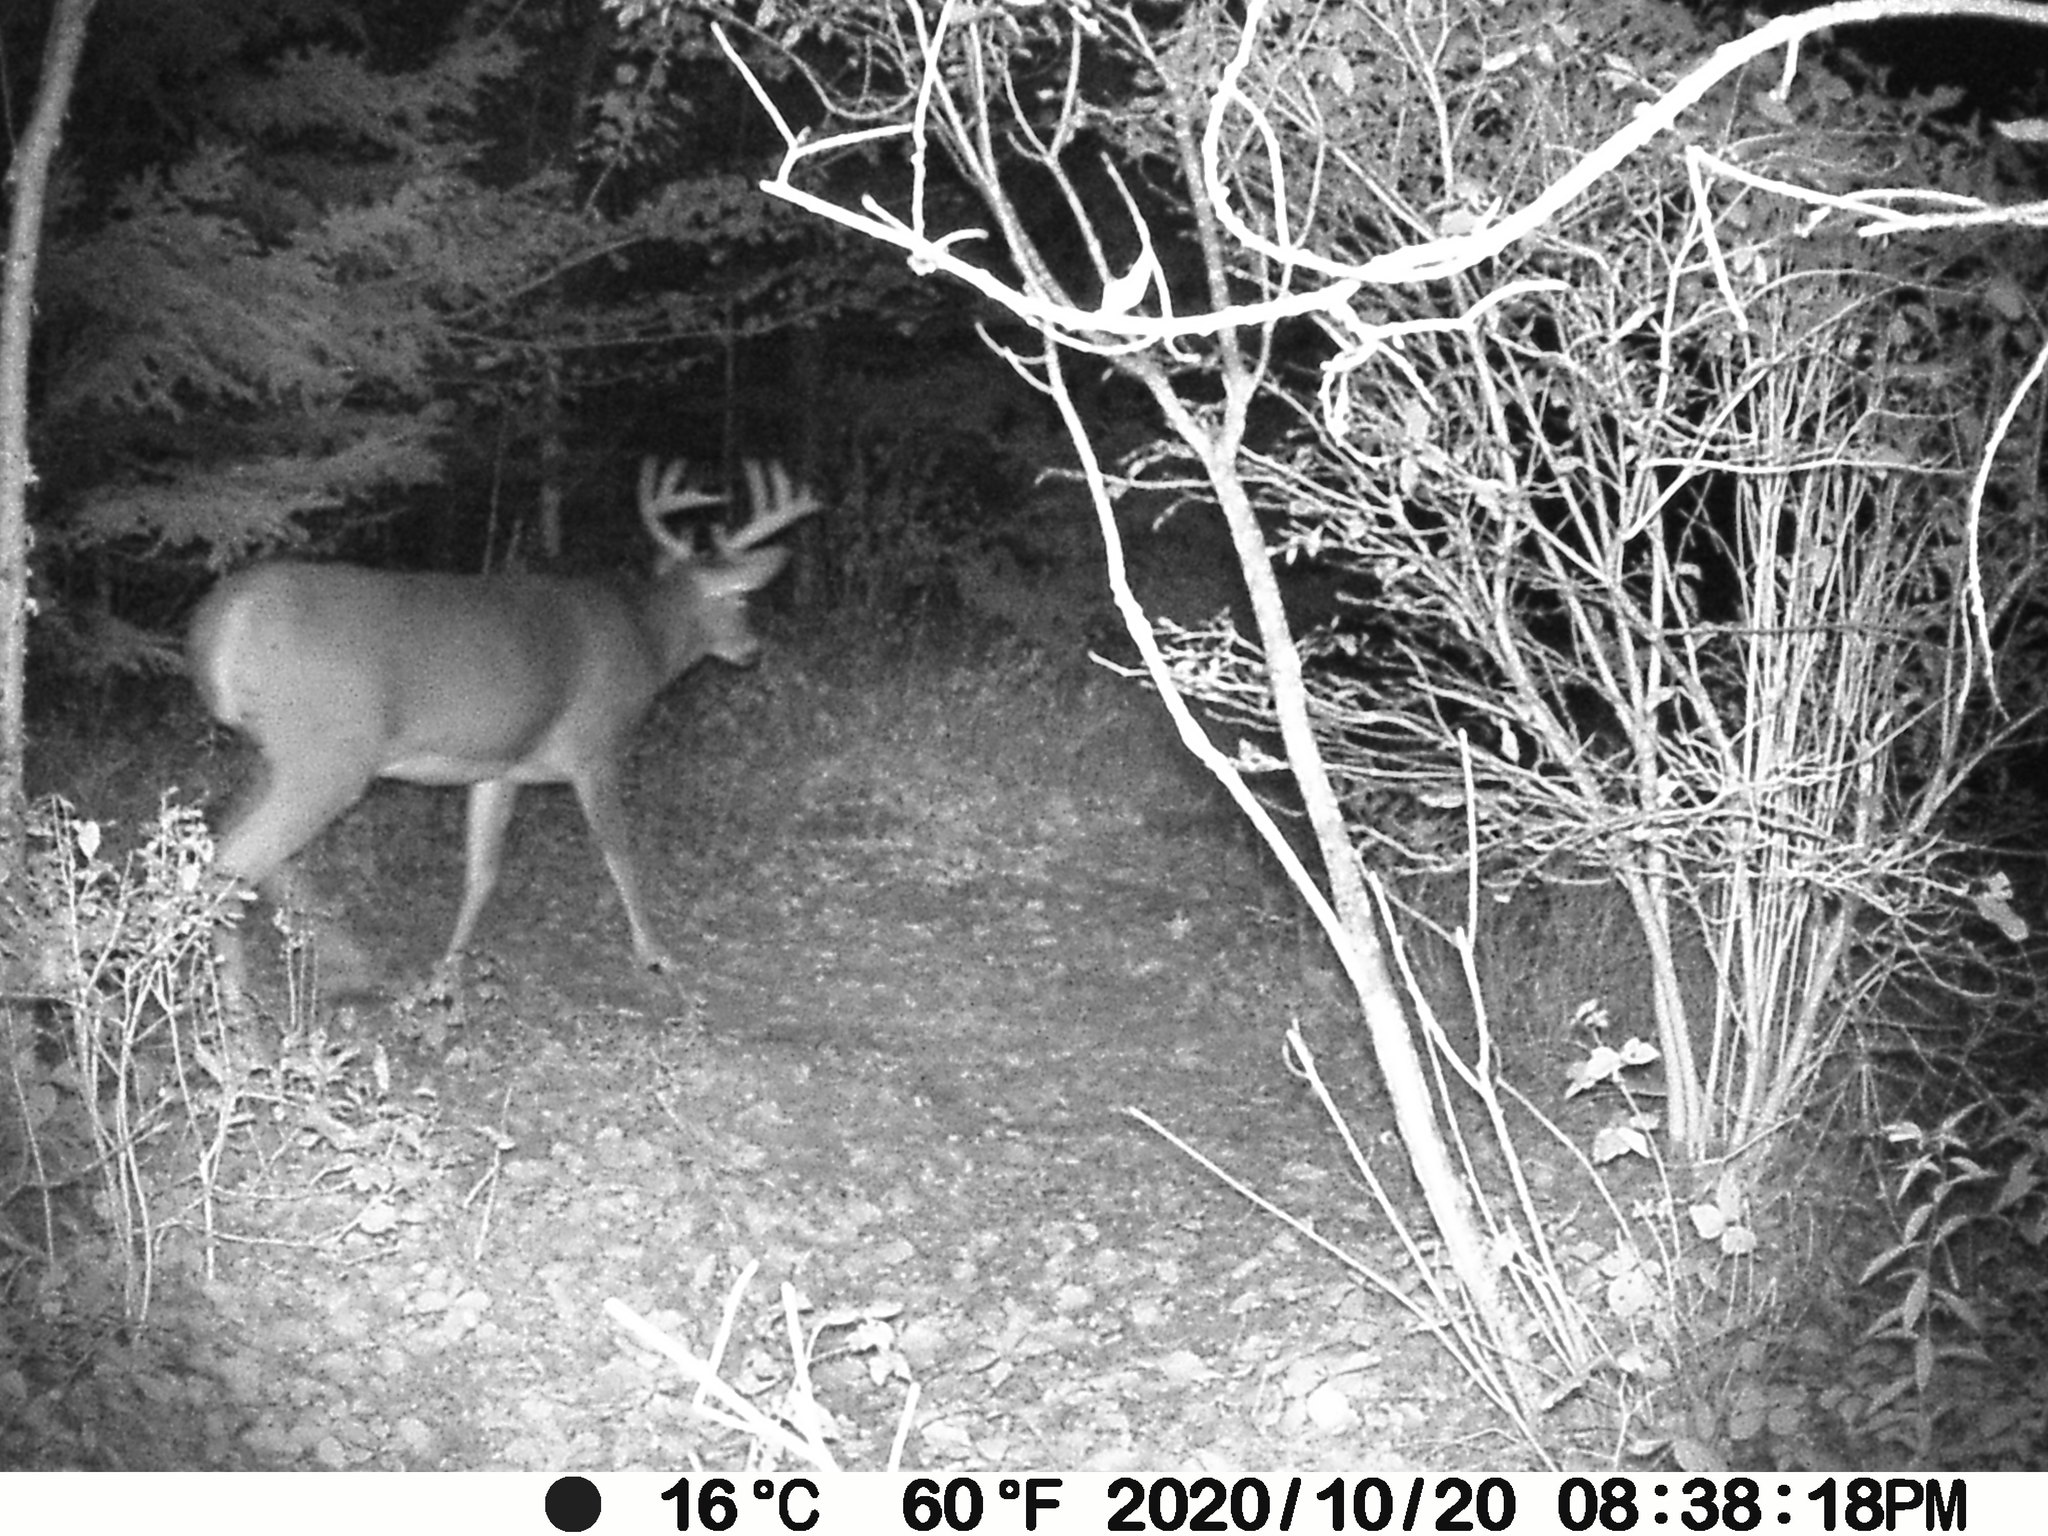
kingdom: Animalia
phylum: Chordata
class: Mammalia
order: Artiodactyla
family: Cervidae
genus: Odocoileus
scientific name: Odocoileus virginianus
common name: White-tailed deer
